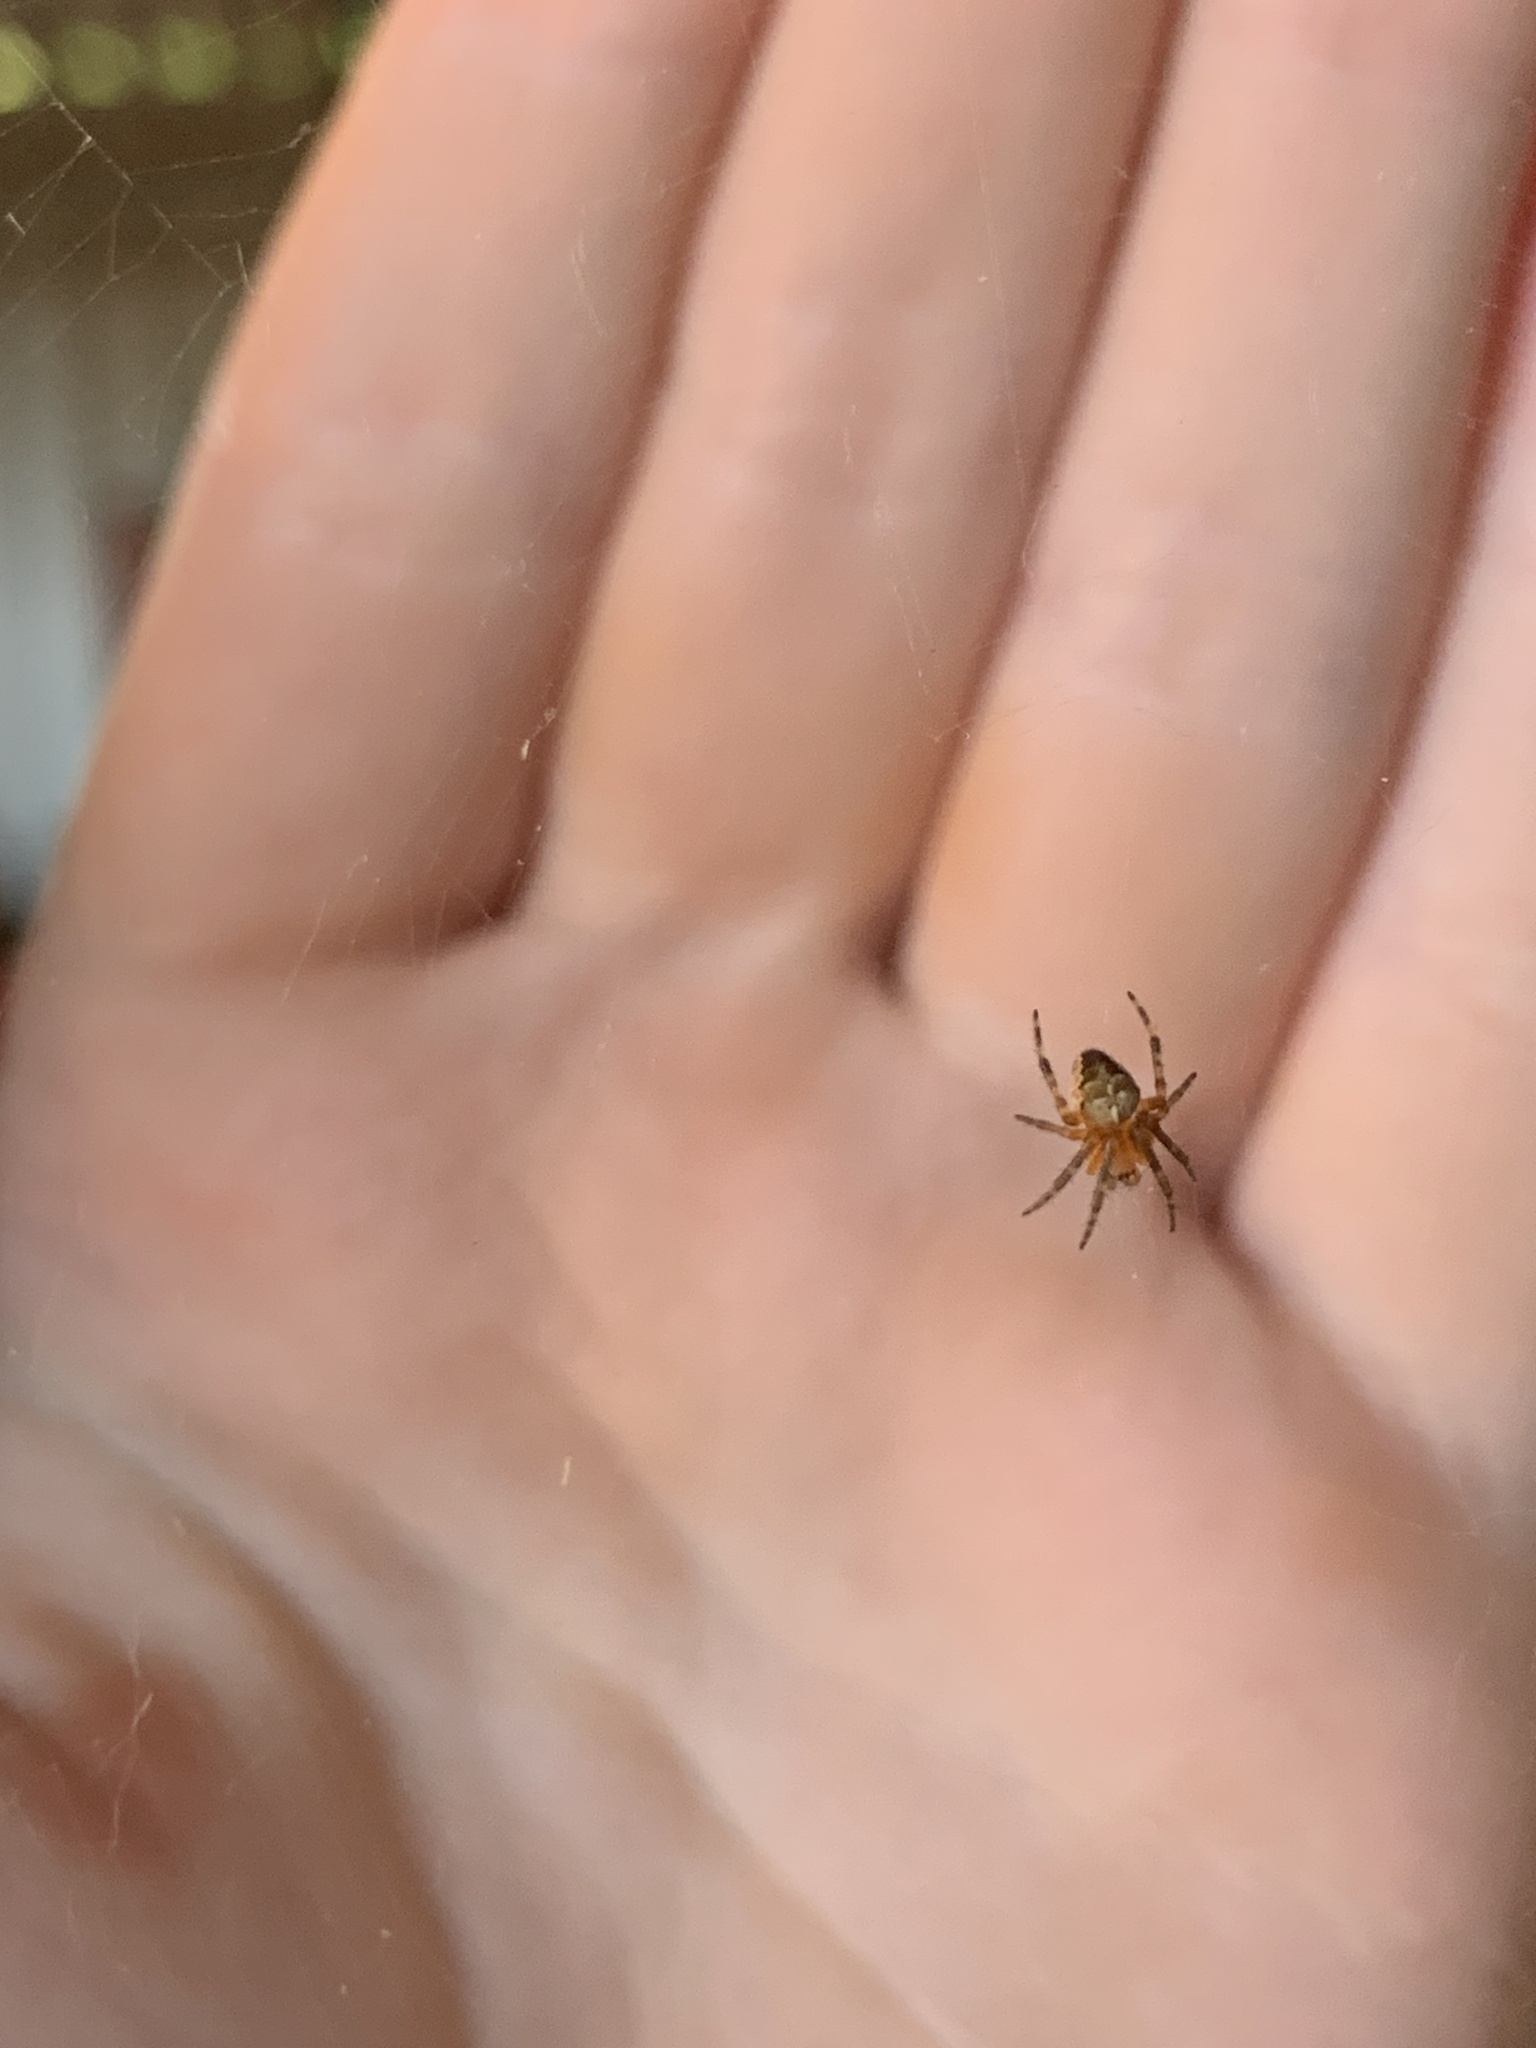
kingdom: Animalia
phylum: Arthropoda
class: Arachnida
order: Araneae
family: Araneidae
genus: Araneus
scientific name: Araneus diadematus
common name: Cross orbweaver
